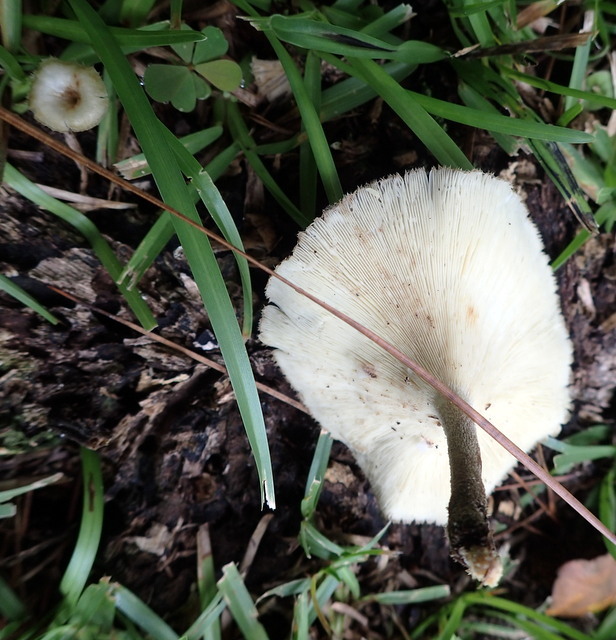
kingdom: Fungi
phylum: Basidiomycota
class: Agaricomycetes
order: Polyporales
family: Polyporaceae
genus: Lentinus
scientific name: Lentinus crinitus
